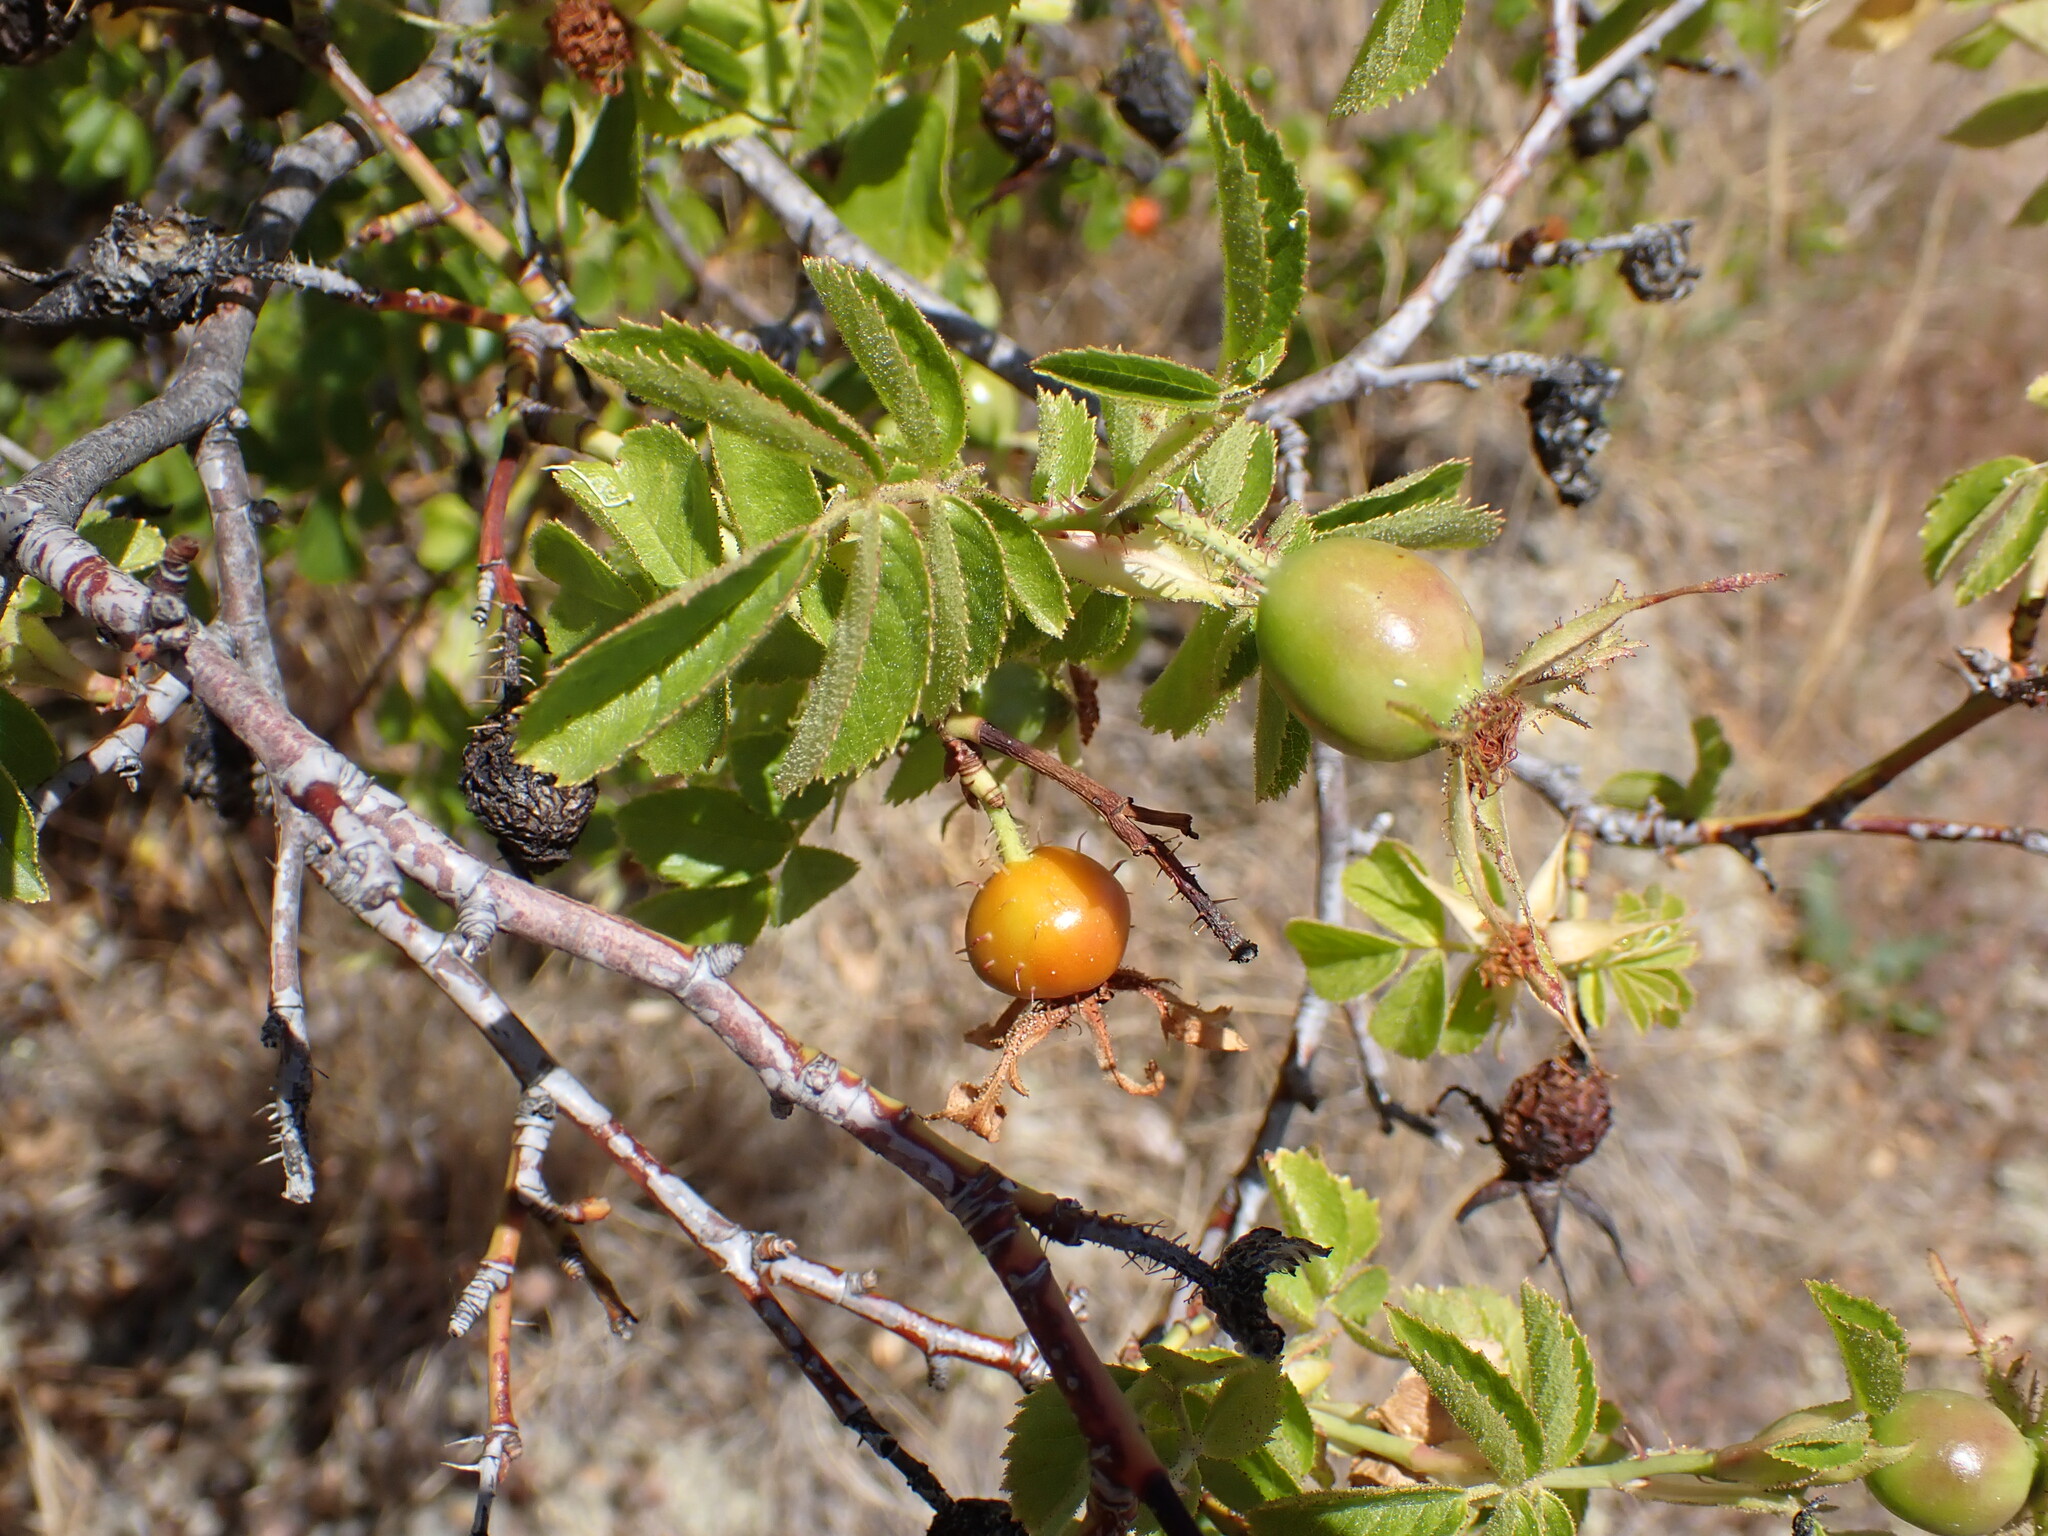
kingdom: Plantae
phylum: Tracheophyta
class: Magnoliopsida
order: Rosales
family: Rosaceae
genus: Rosa
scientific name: Rosa rubiginosa
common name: Sweet-briar
